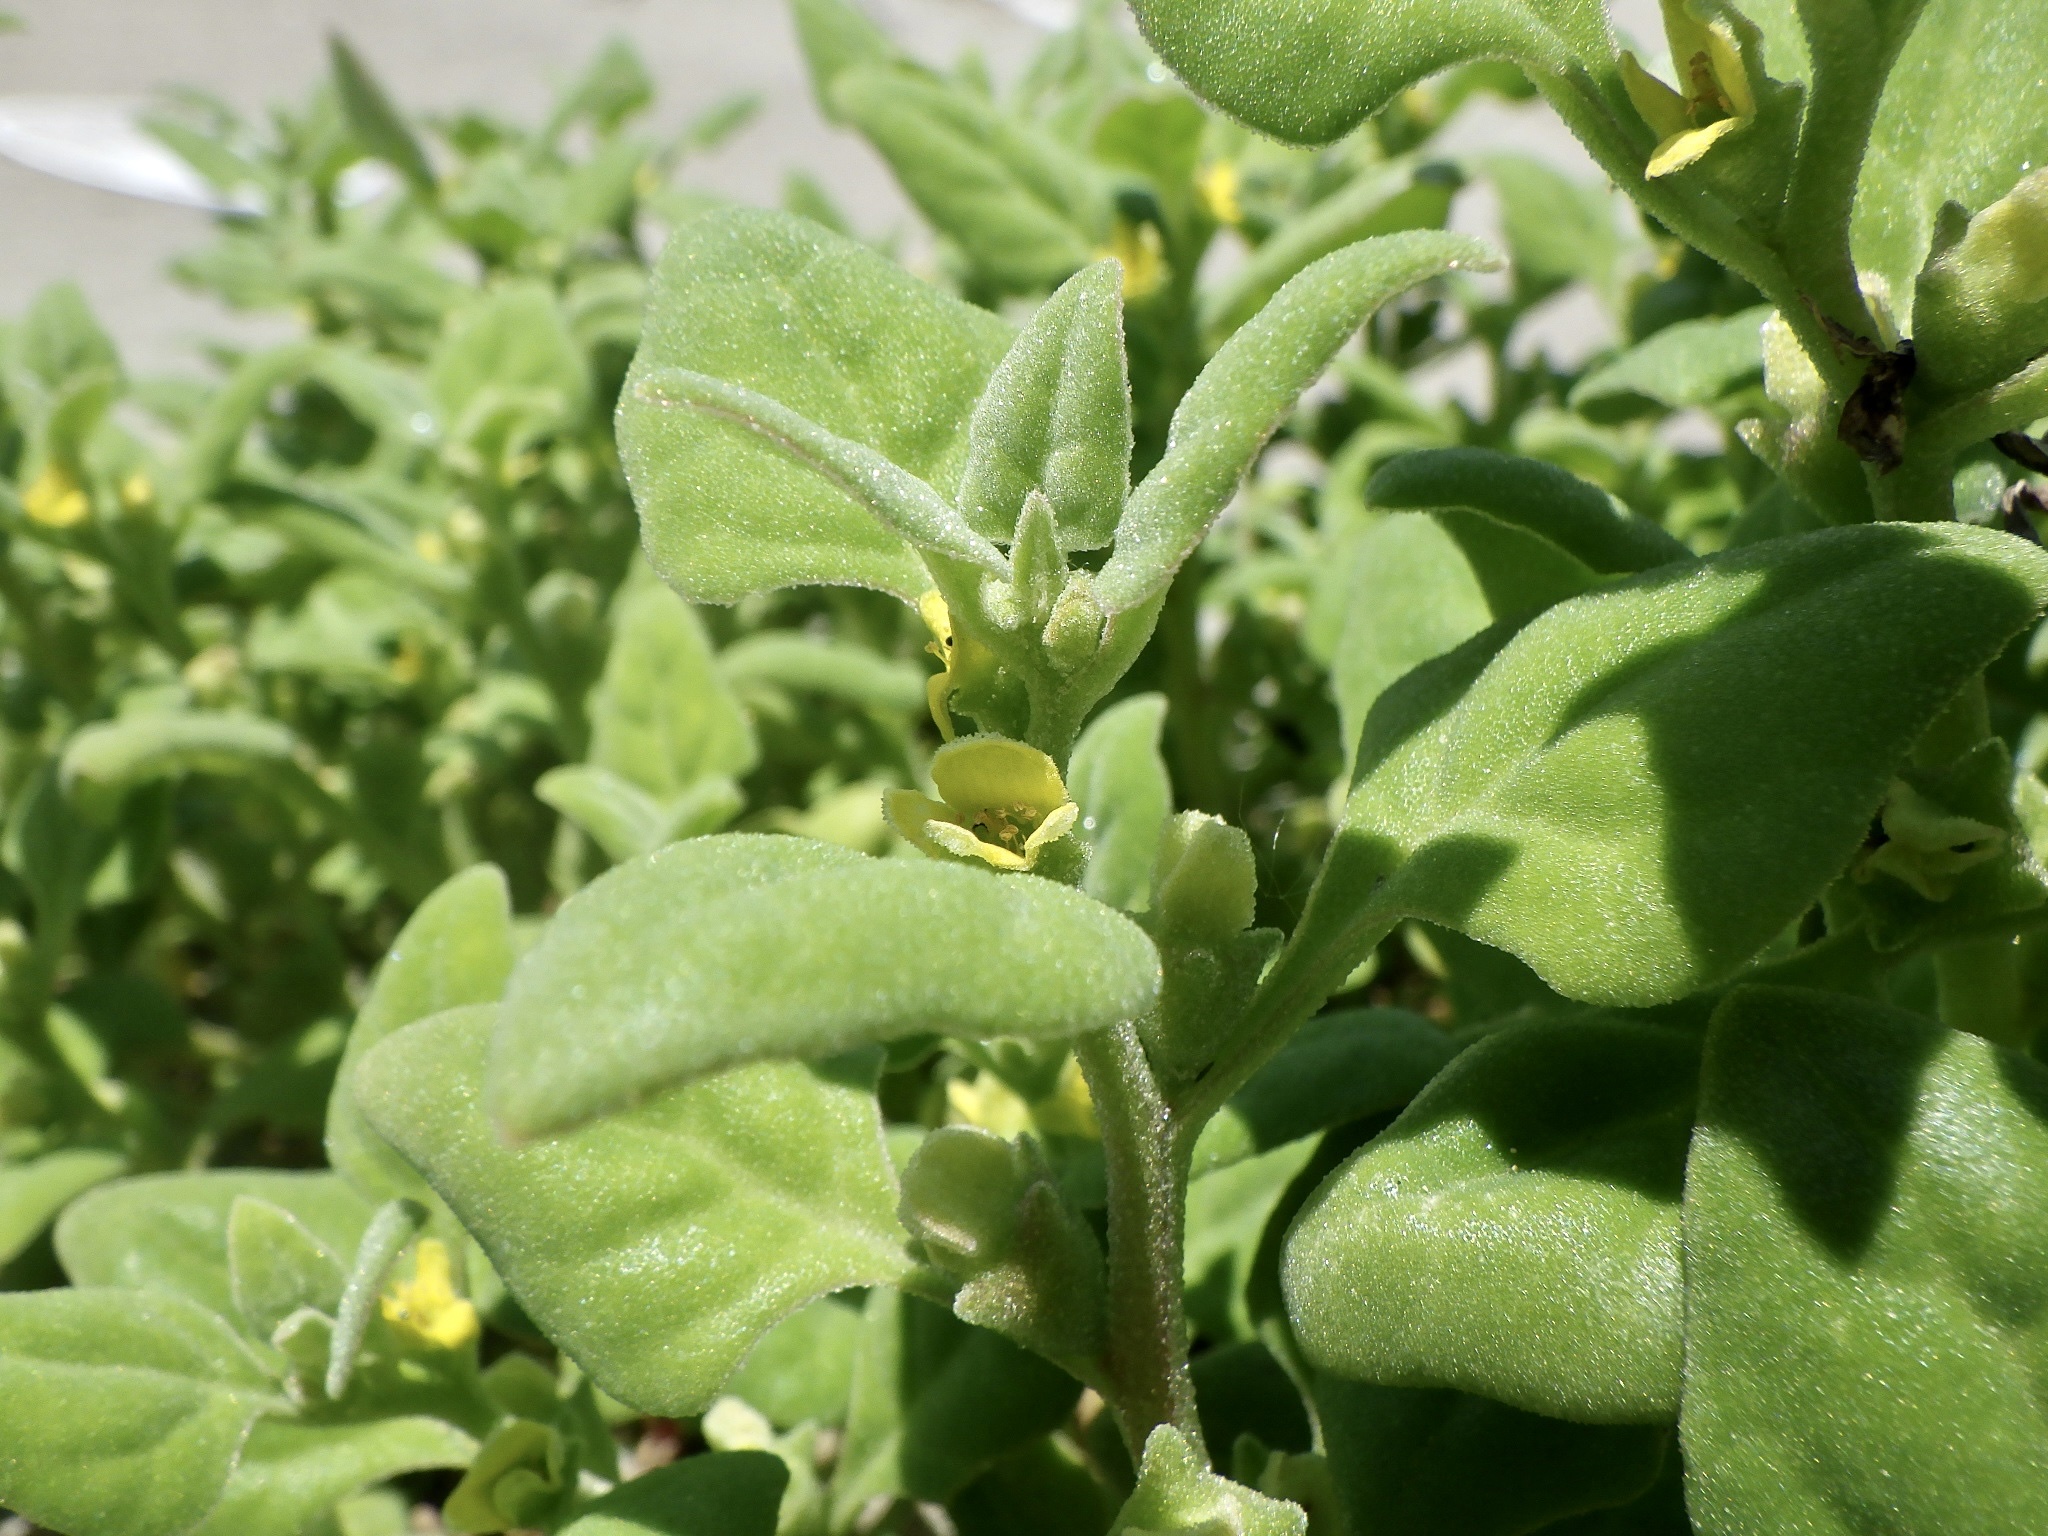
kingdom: Plantae
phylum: Tracheophyta
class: Magnoliopsida
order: Caryophyllales
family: Aizoaceae
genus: Tetragonia
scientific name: Tetragonia tetragonoides
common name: New zealand-spinach
